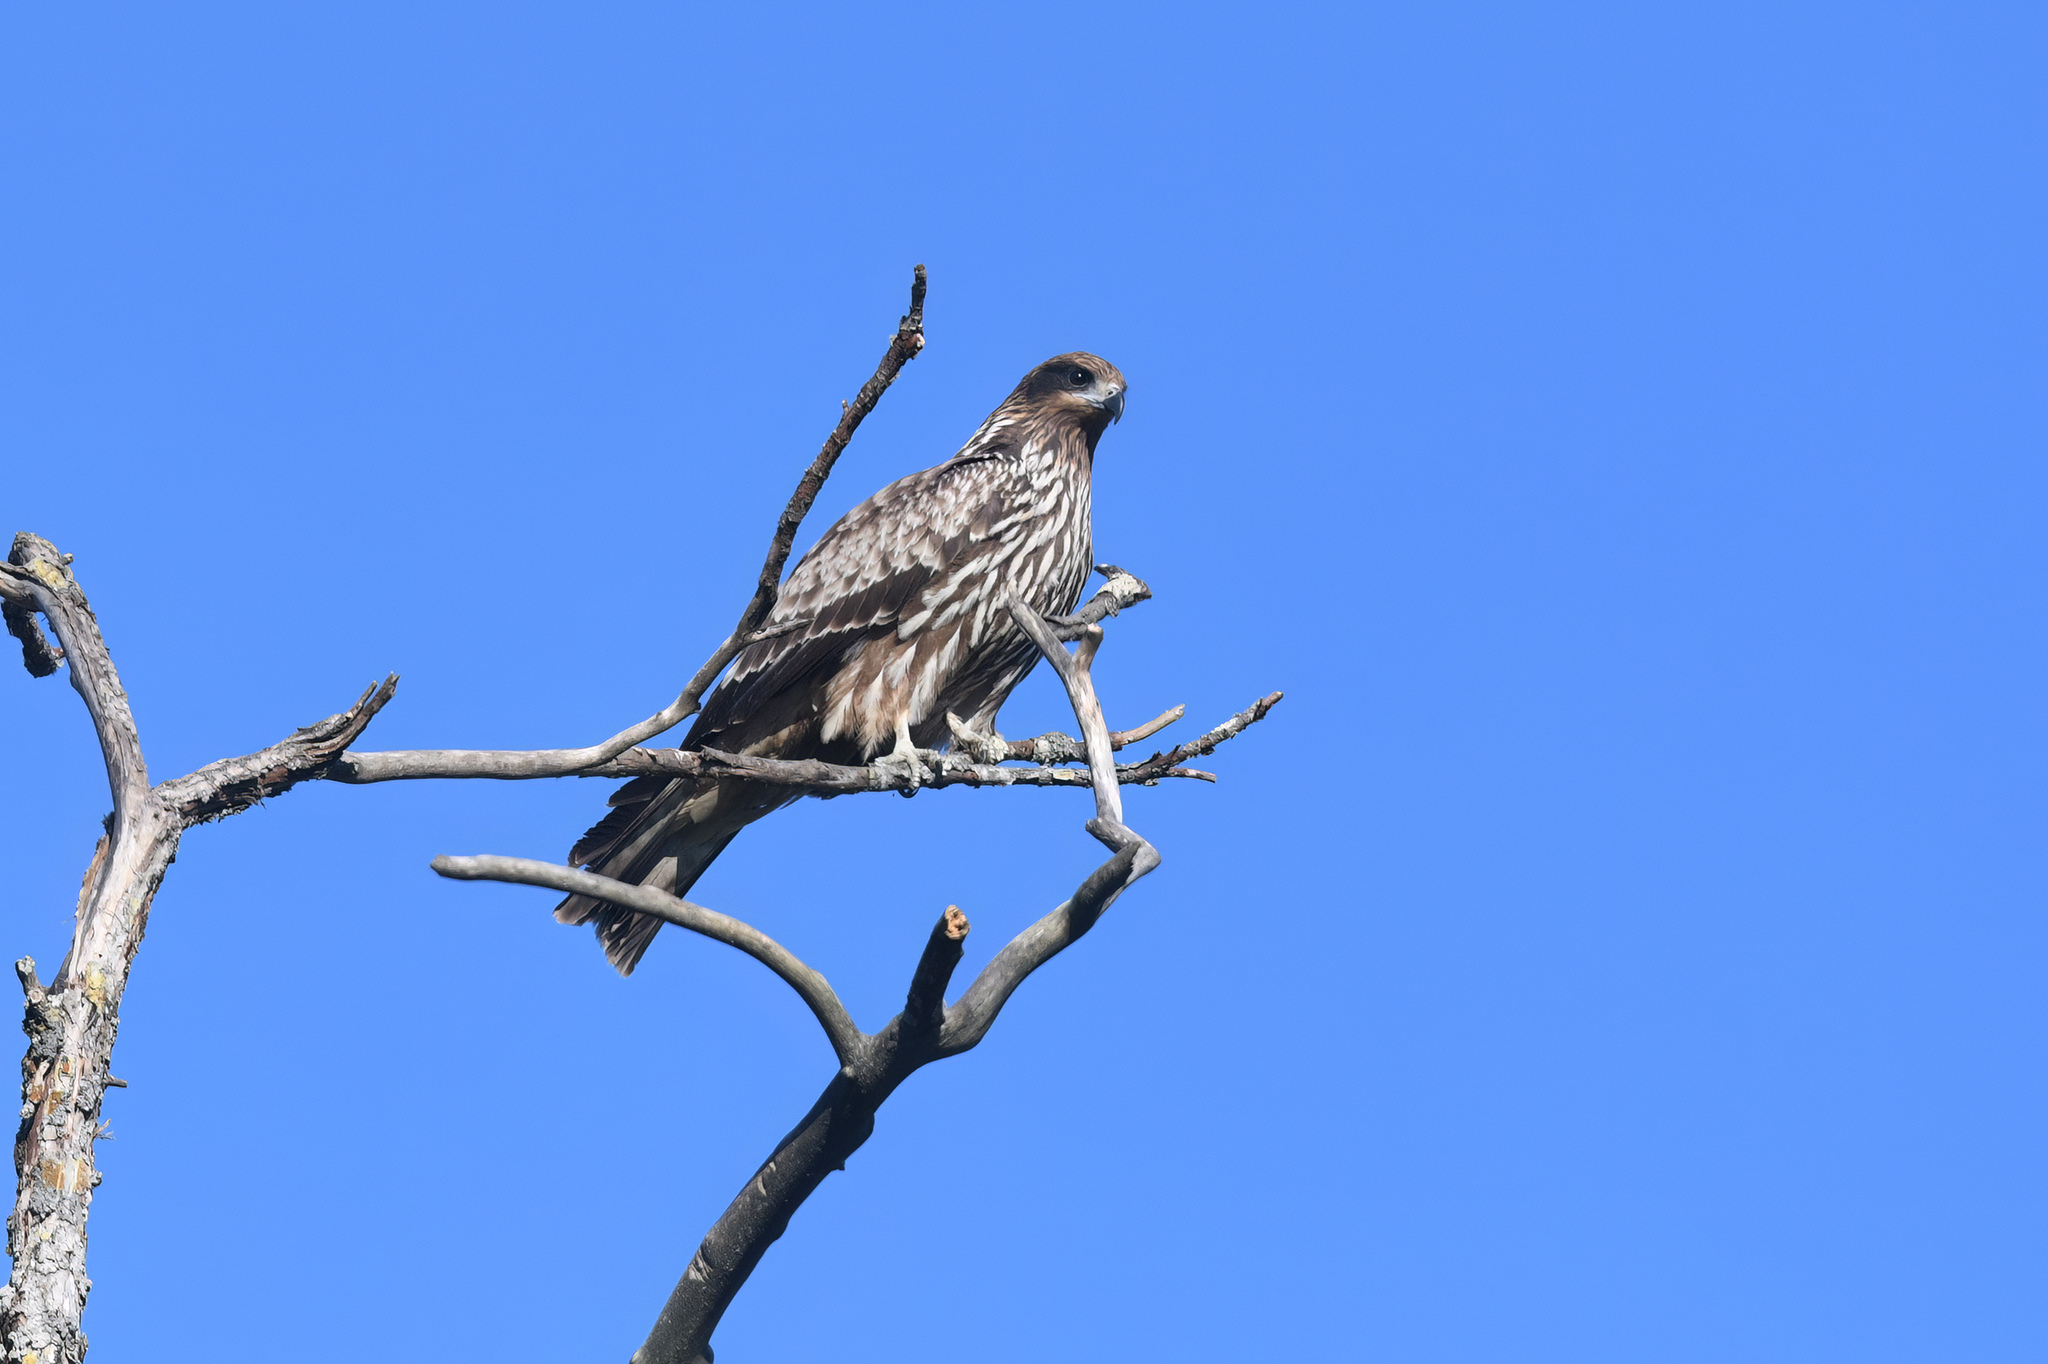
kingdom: Animalia
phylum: Chordata
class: Aves
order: Accipitriformes
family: Accipitridae
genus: Milvus
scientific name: Milvus migrans
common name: Black kite
